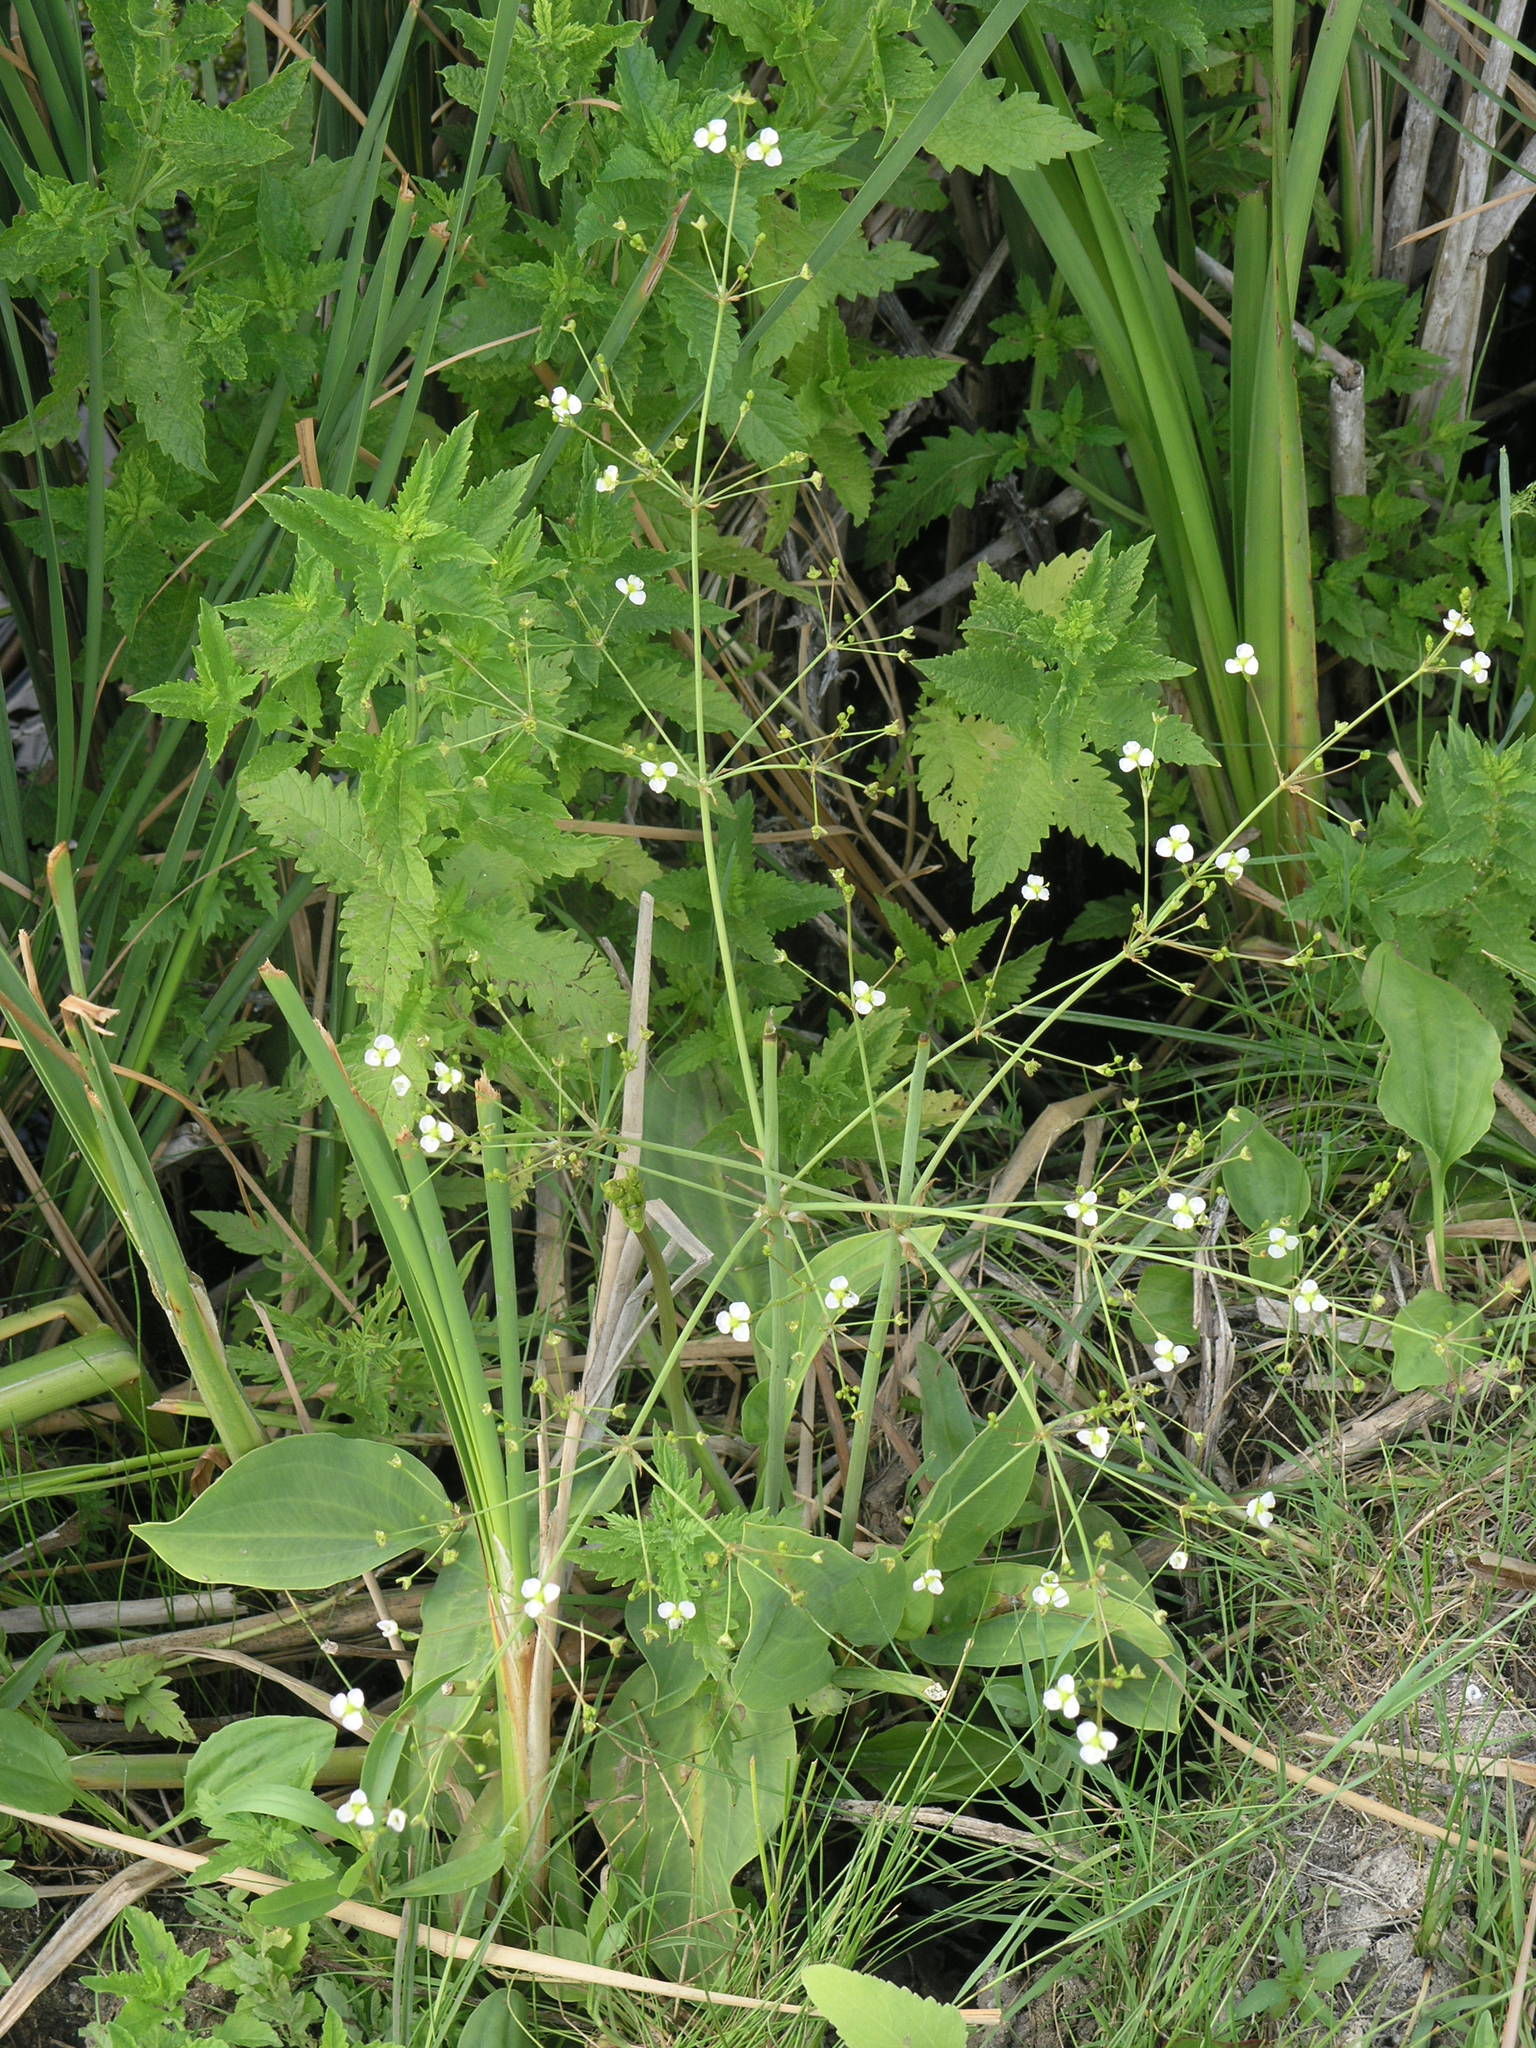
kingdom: Plantae
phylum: Tracheophyta
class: Liliopsida
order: Alismatales
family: Alismataceae
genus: Alisma
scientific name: Alisma plantago-aquatica
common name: Water-plantain
